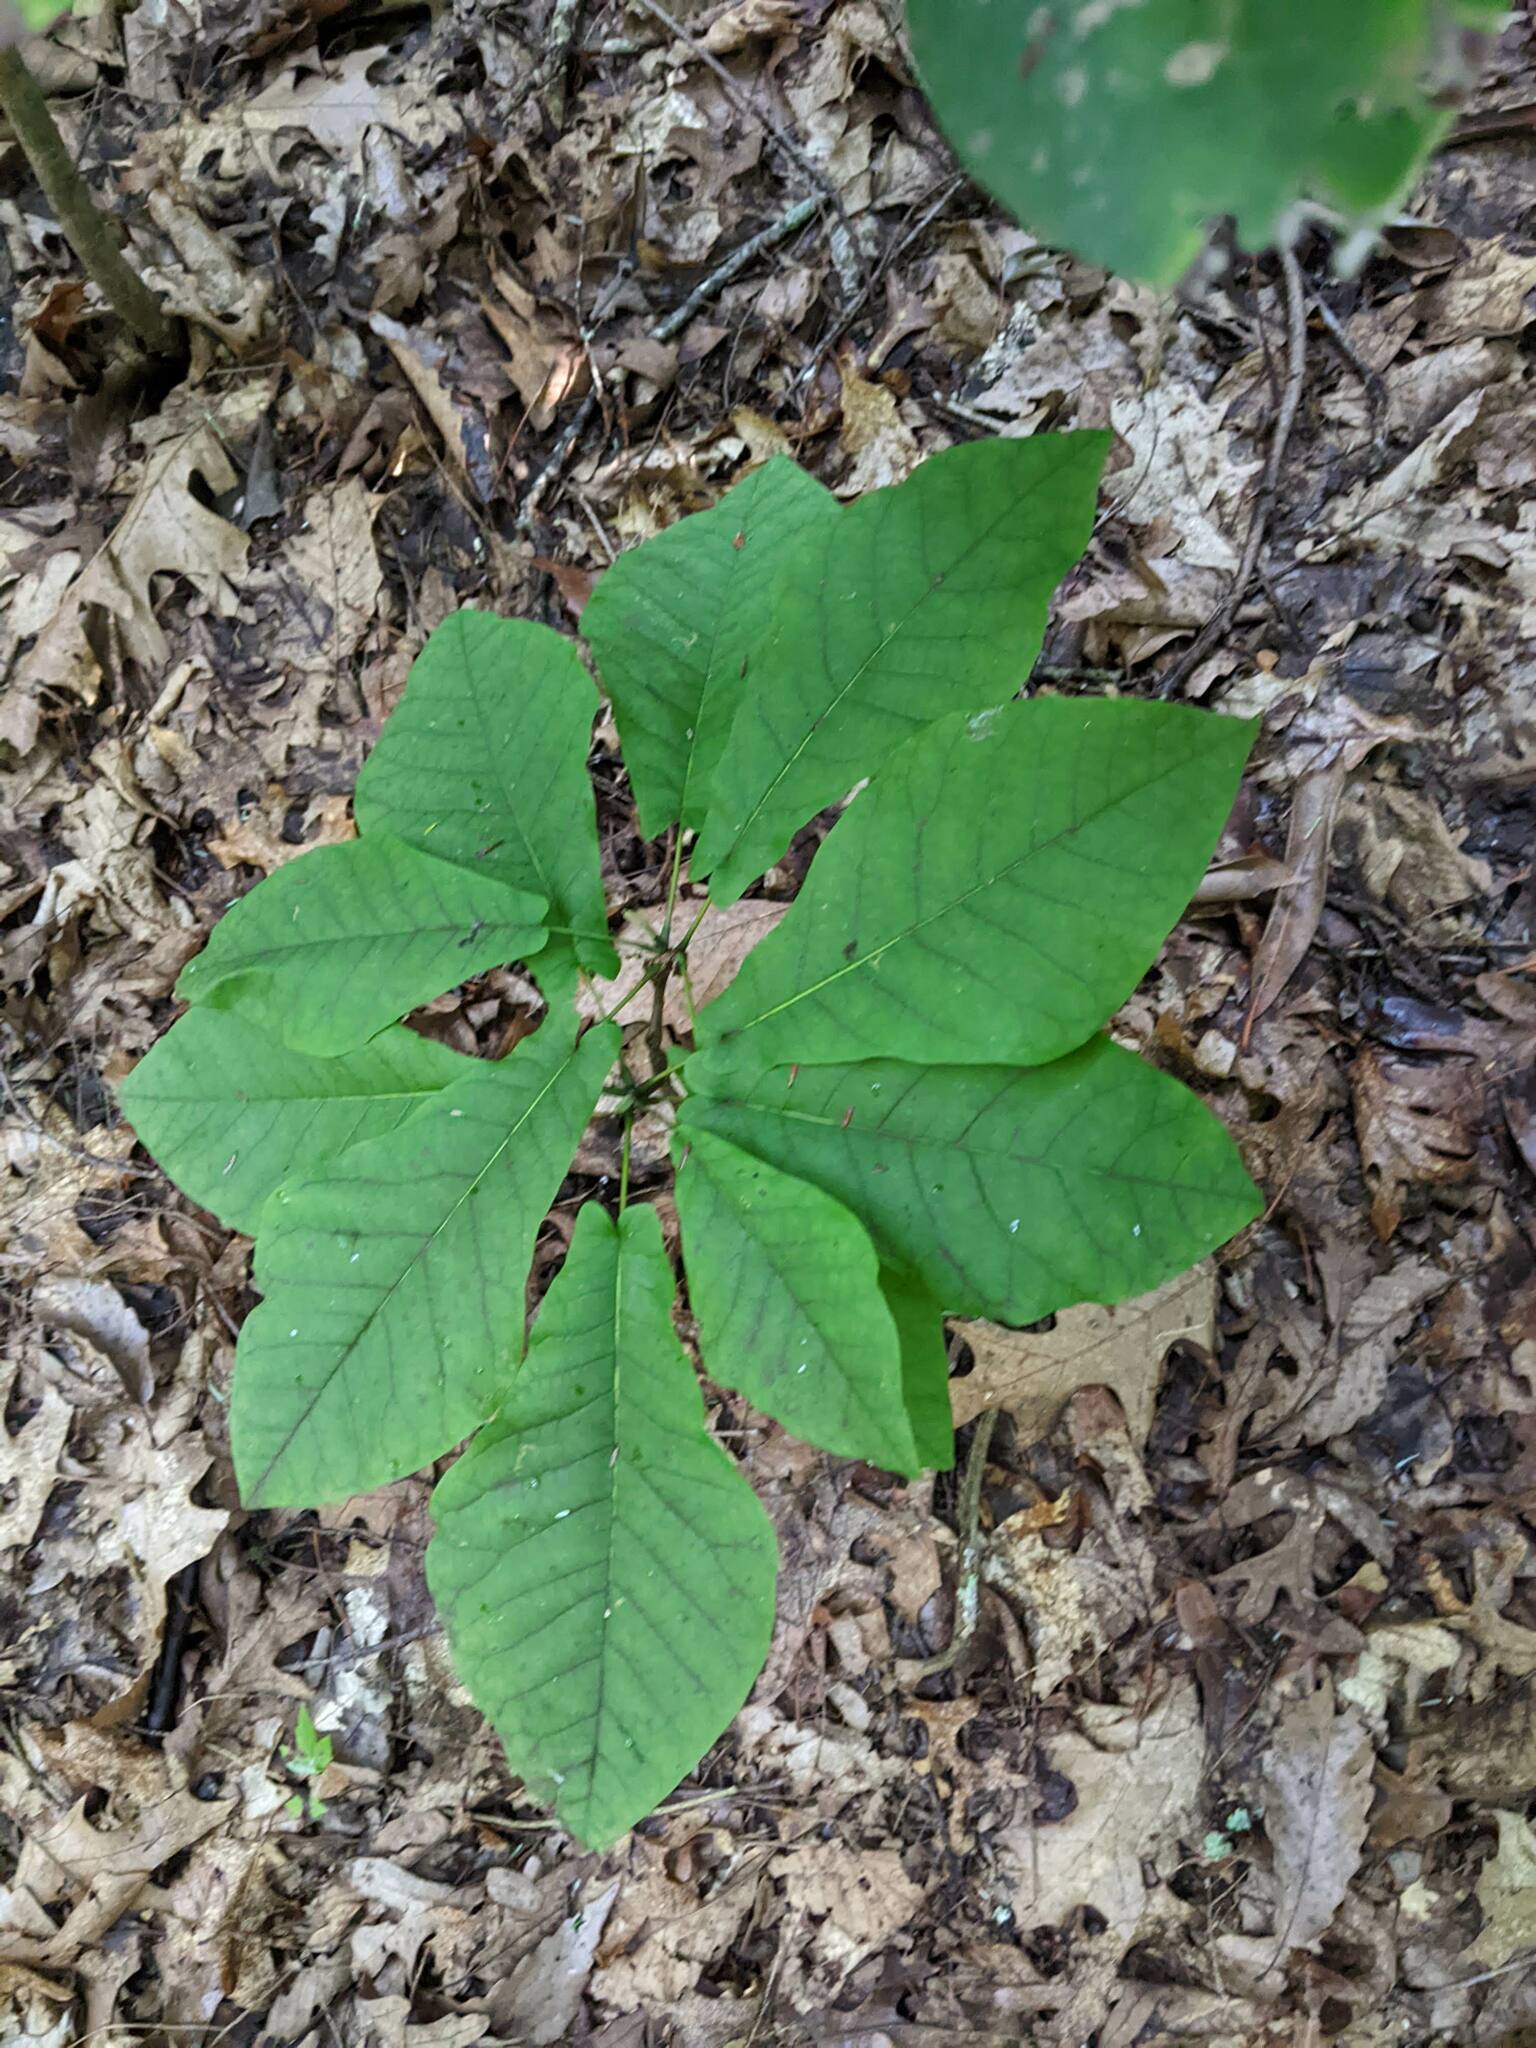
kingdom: Plantae
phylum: Tracheophyta
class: Magnoliopsida
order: Magnoliales
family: Magnoliaceae
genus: Magnolia
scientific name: Magnolia fraseri
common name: Fraser's magnolia
